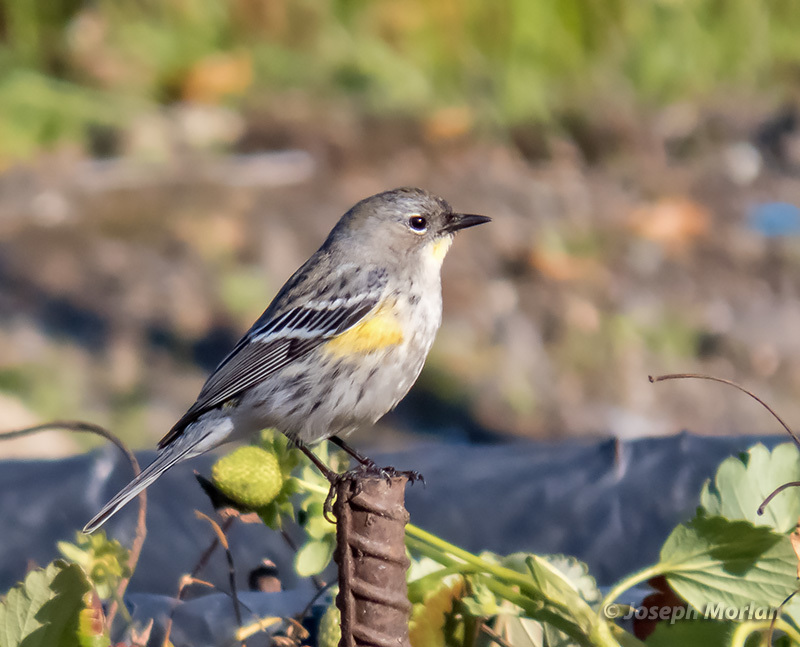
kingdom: Animalia
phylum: Chordata
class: Aves
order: Passeriformes
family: Parulidae
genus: Setophaga
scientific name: Setophaga coronata
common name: Myrtle warbler
